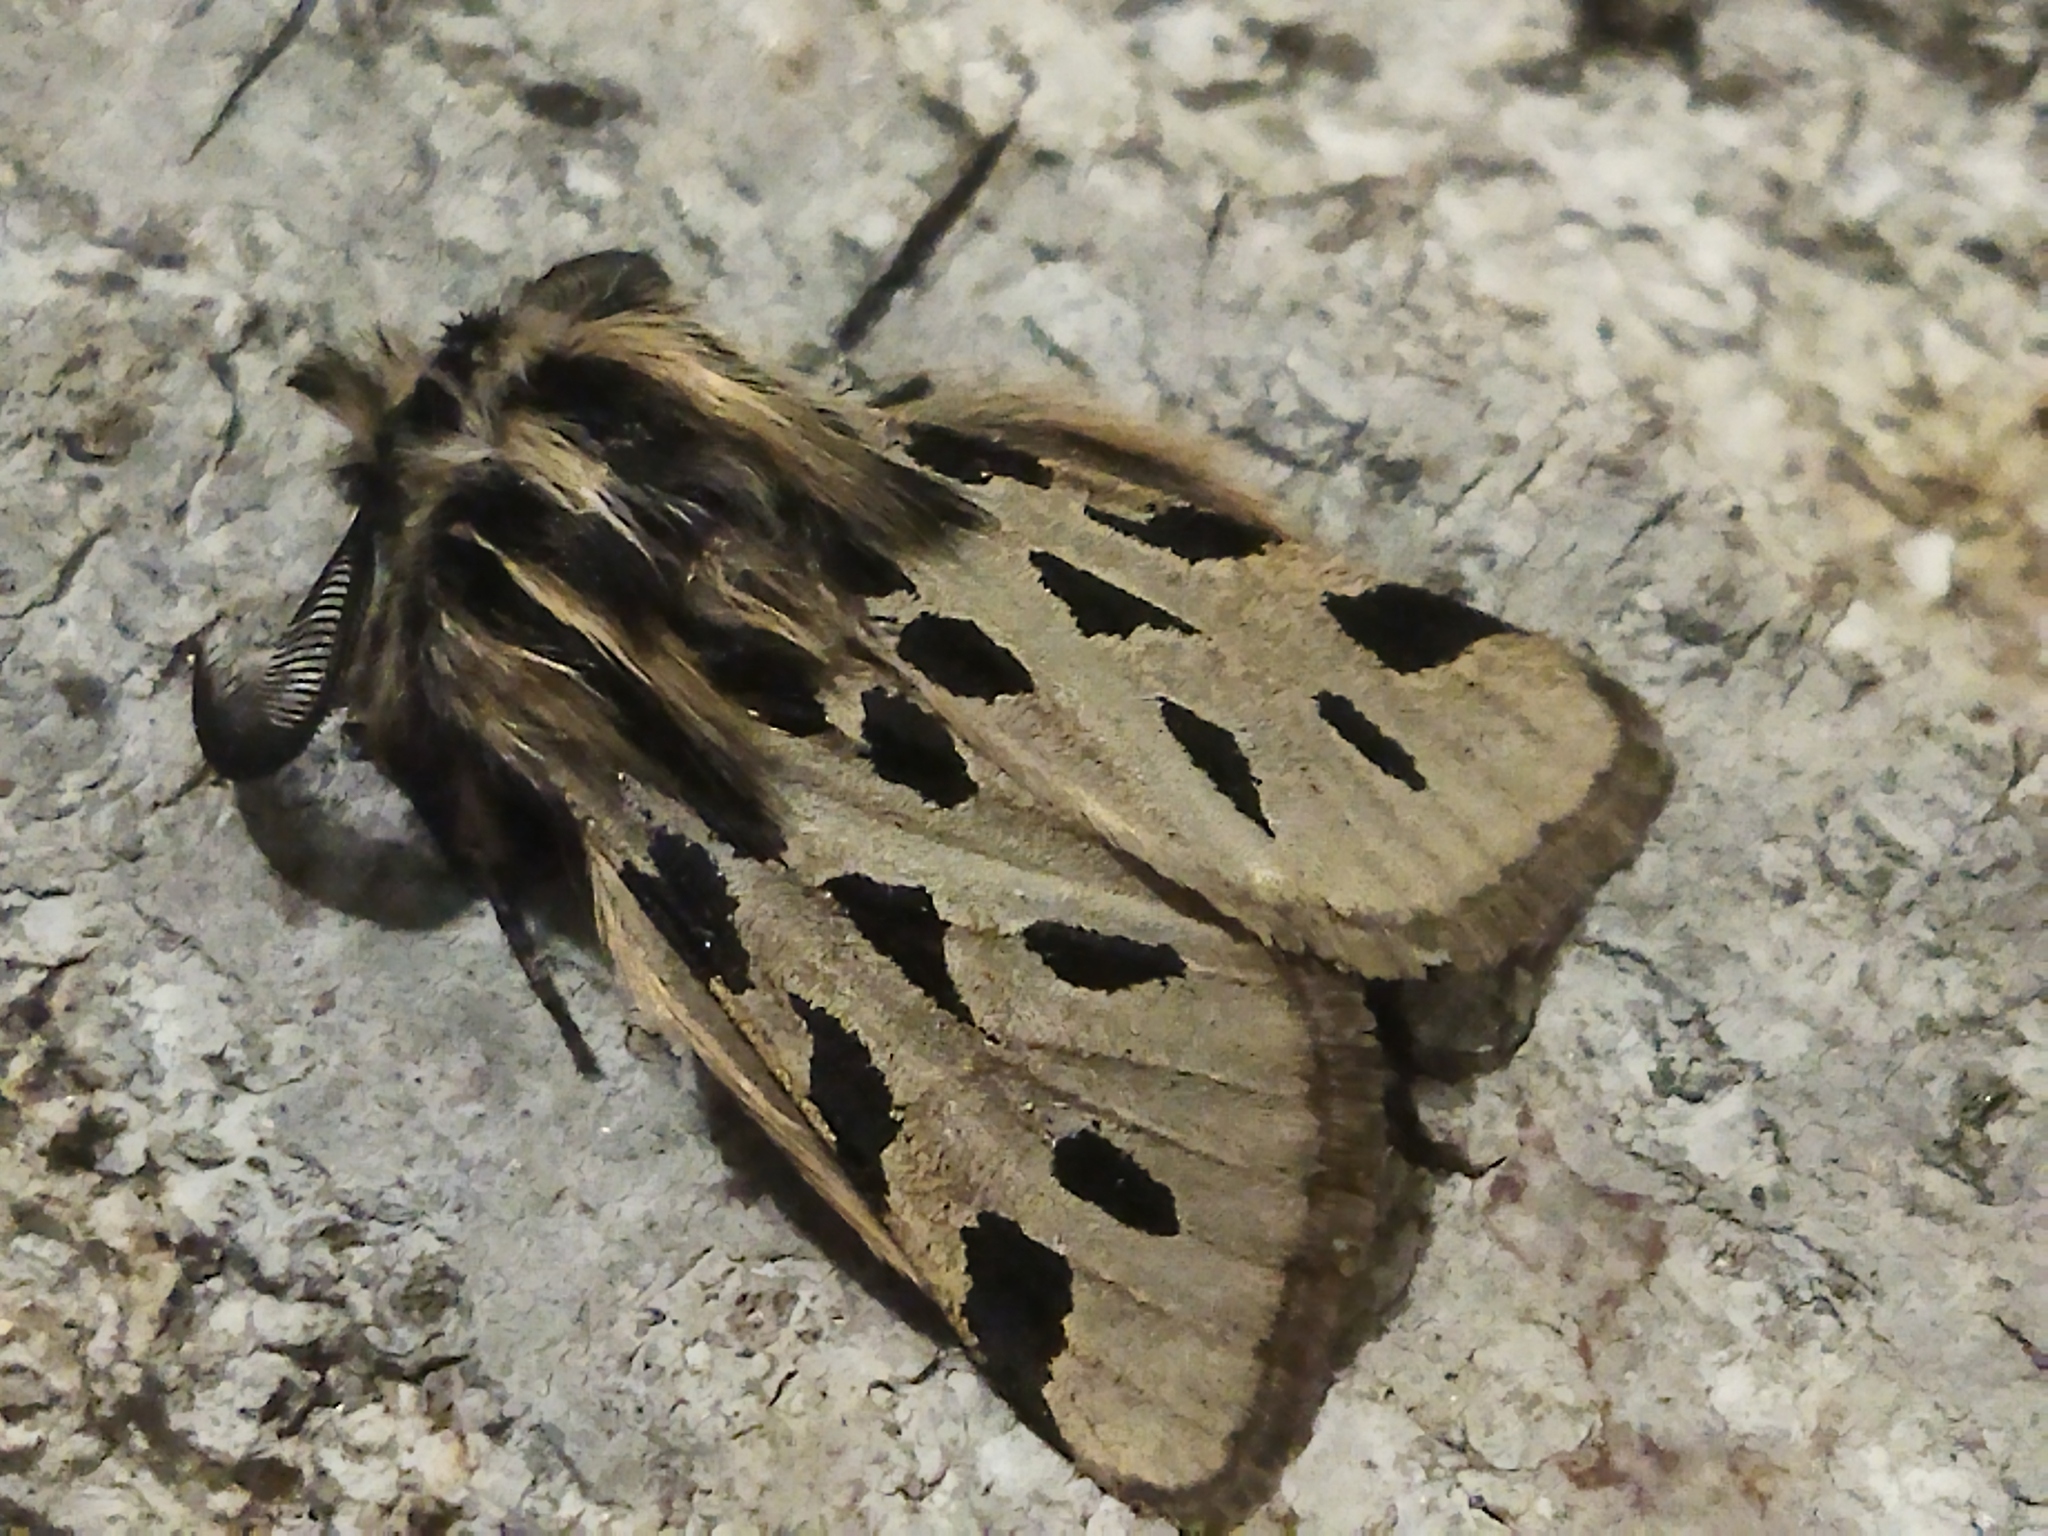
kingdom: Animalia
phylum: Arthropoda
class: Insecta
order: Lepidoptera
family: Erebidae
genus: Ocnogyna
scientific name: Ocnogyna parasita
